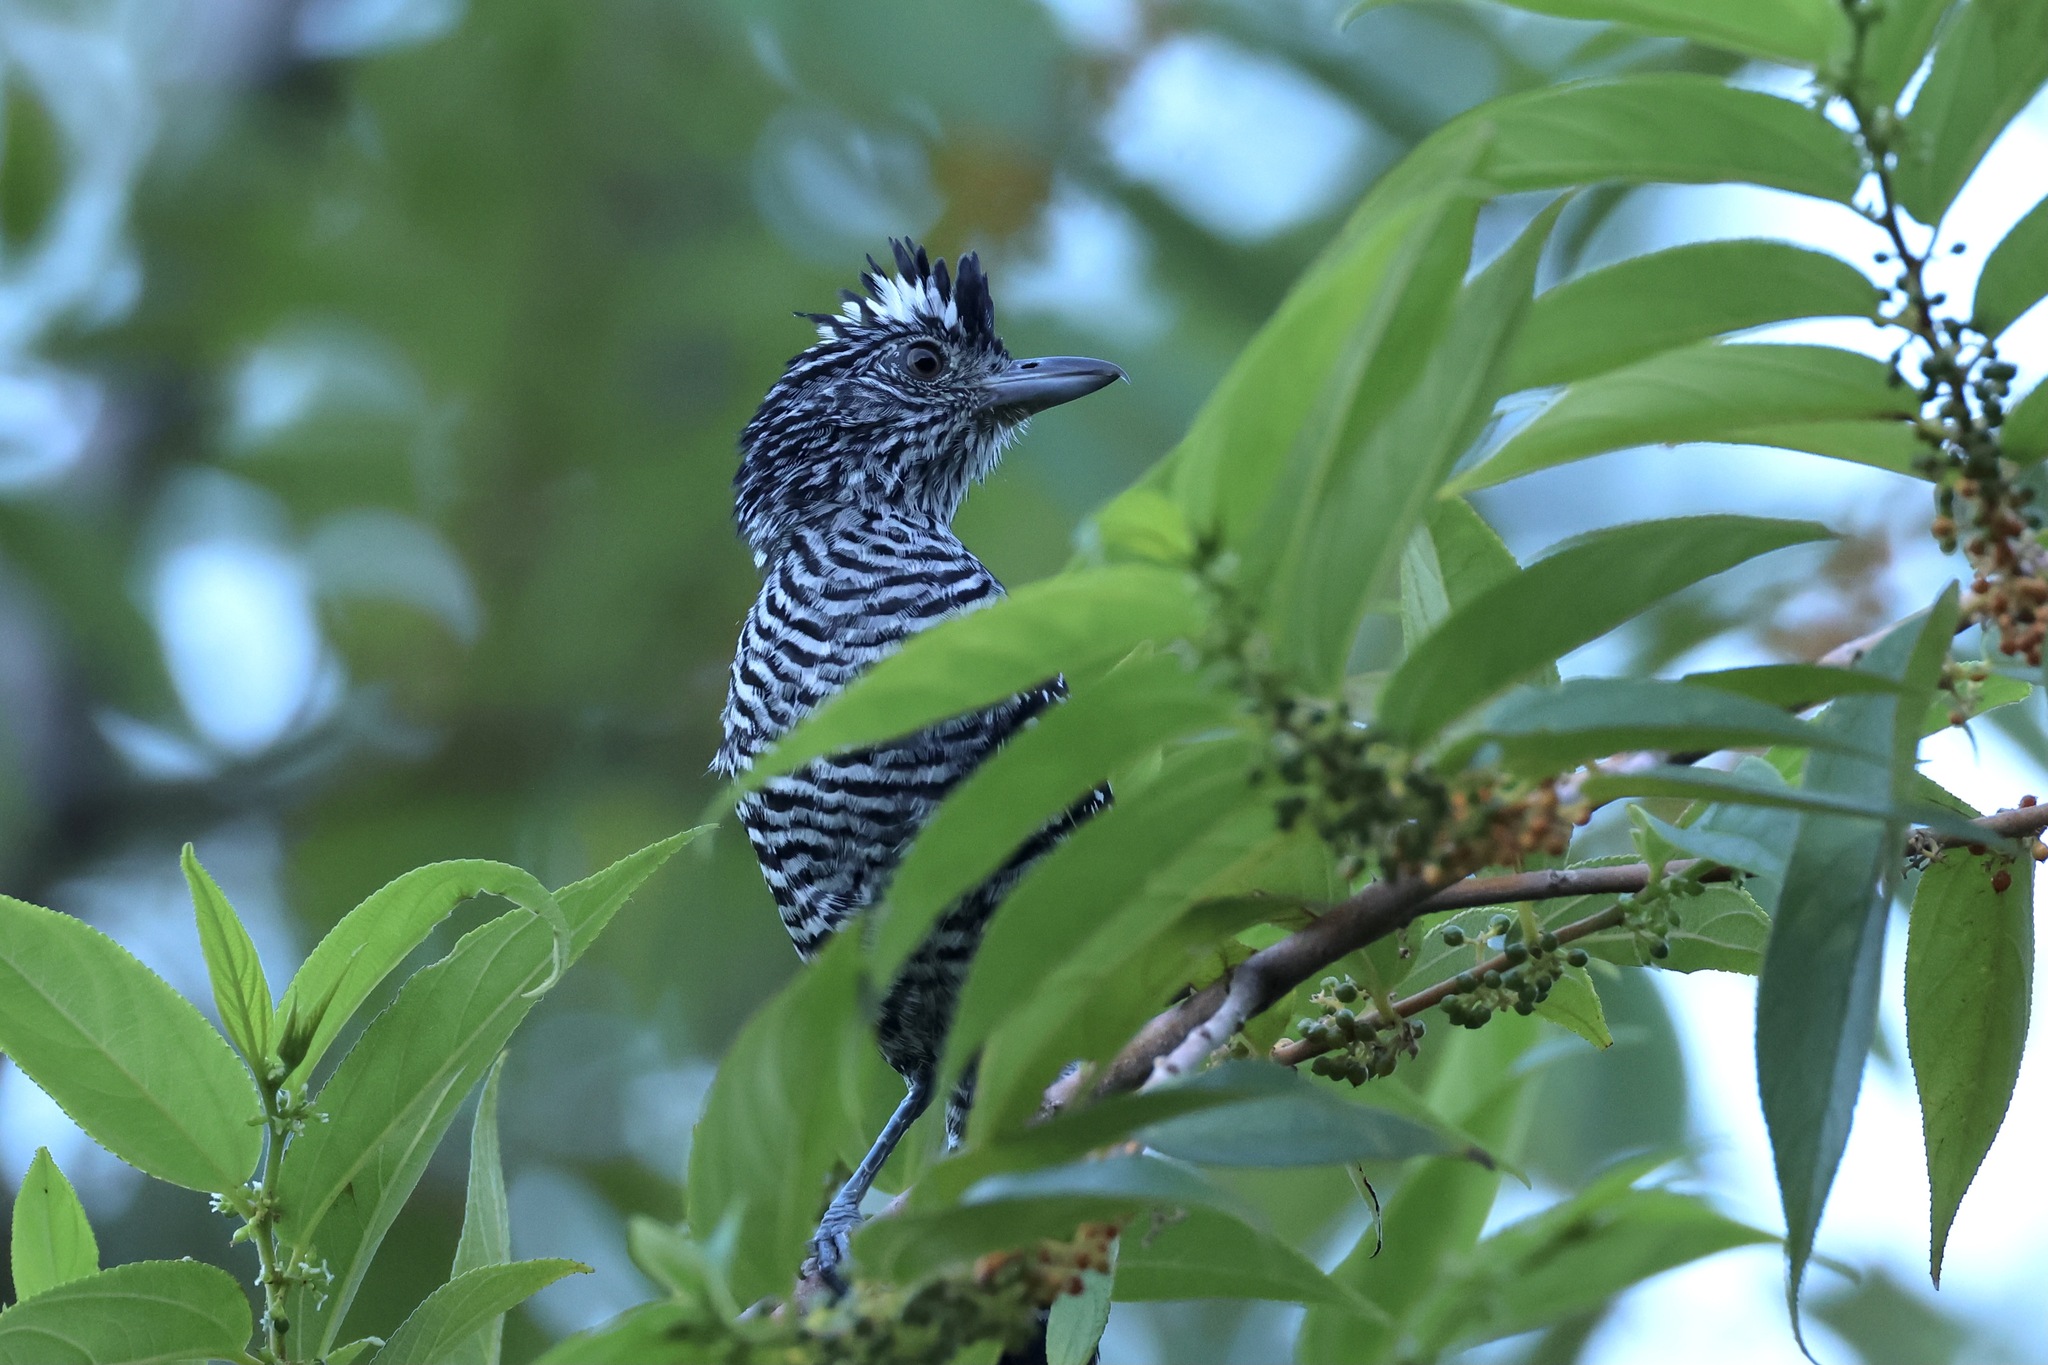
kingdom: Animalia
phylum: Chordata
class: Aves
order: Passeriformes
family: Thamnophilidae
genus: Thamnophilus
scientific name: Thamnophilus doliatus
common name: Barred antshrike
